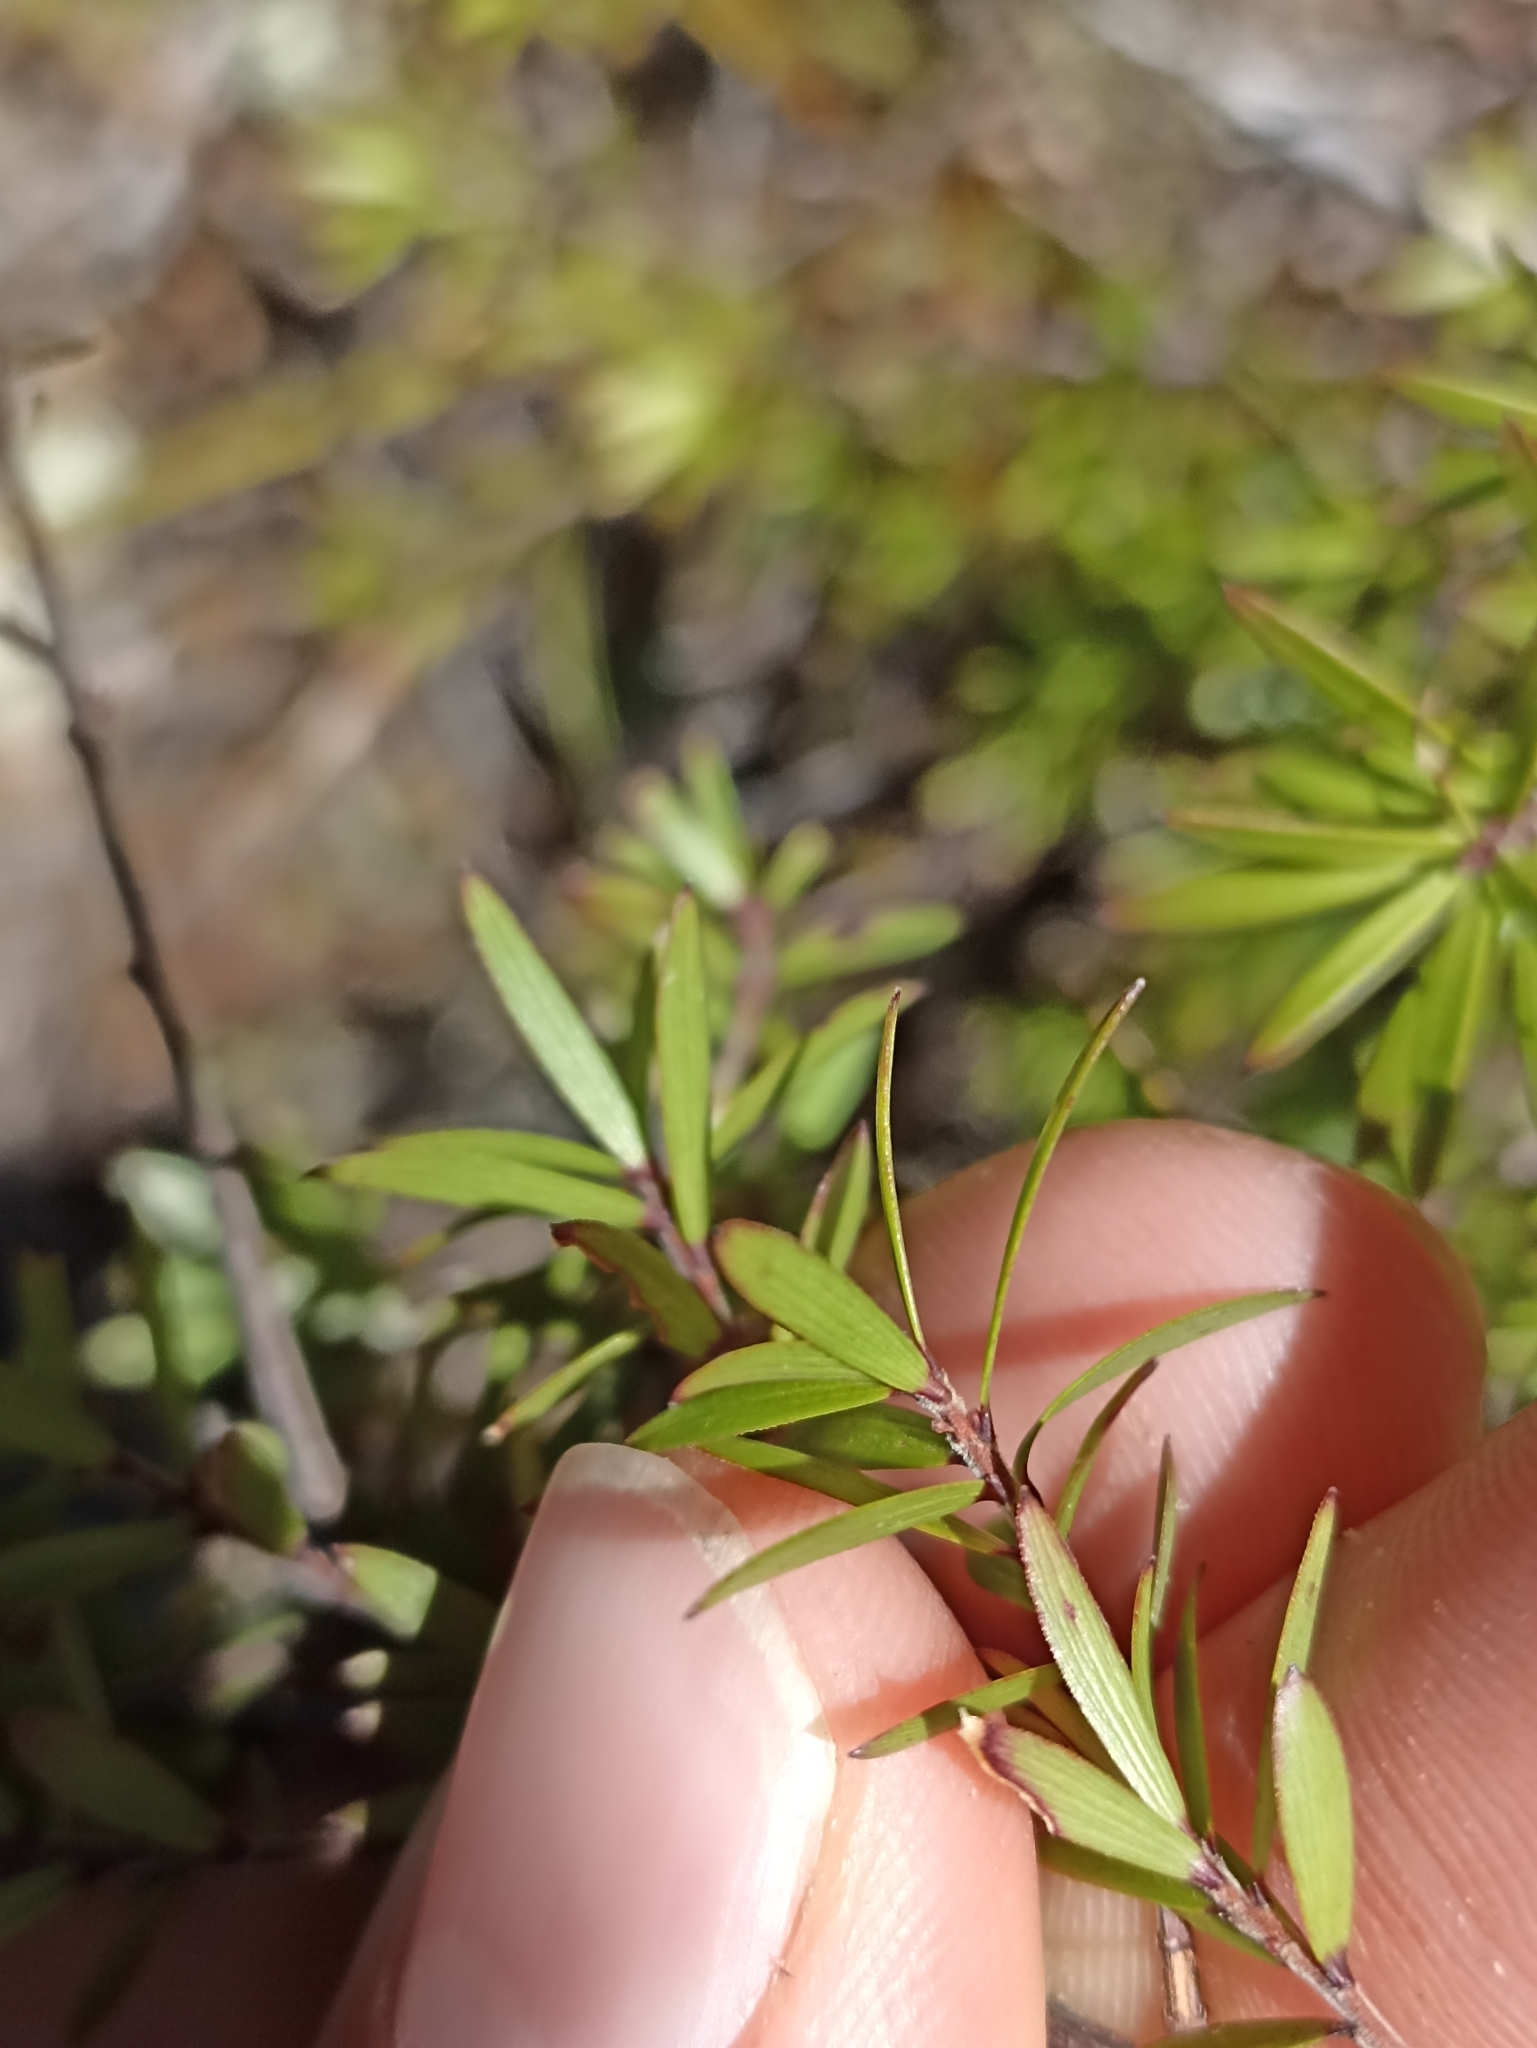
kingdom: Plantae
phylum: Tracheophyta
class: Magnoliopsida
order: Ericales
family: Ericaceae
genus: Leucopogon
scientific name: Leucopogon fasciculatus
